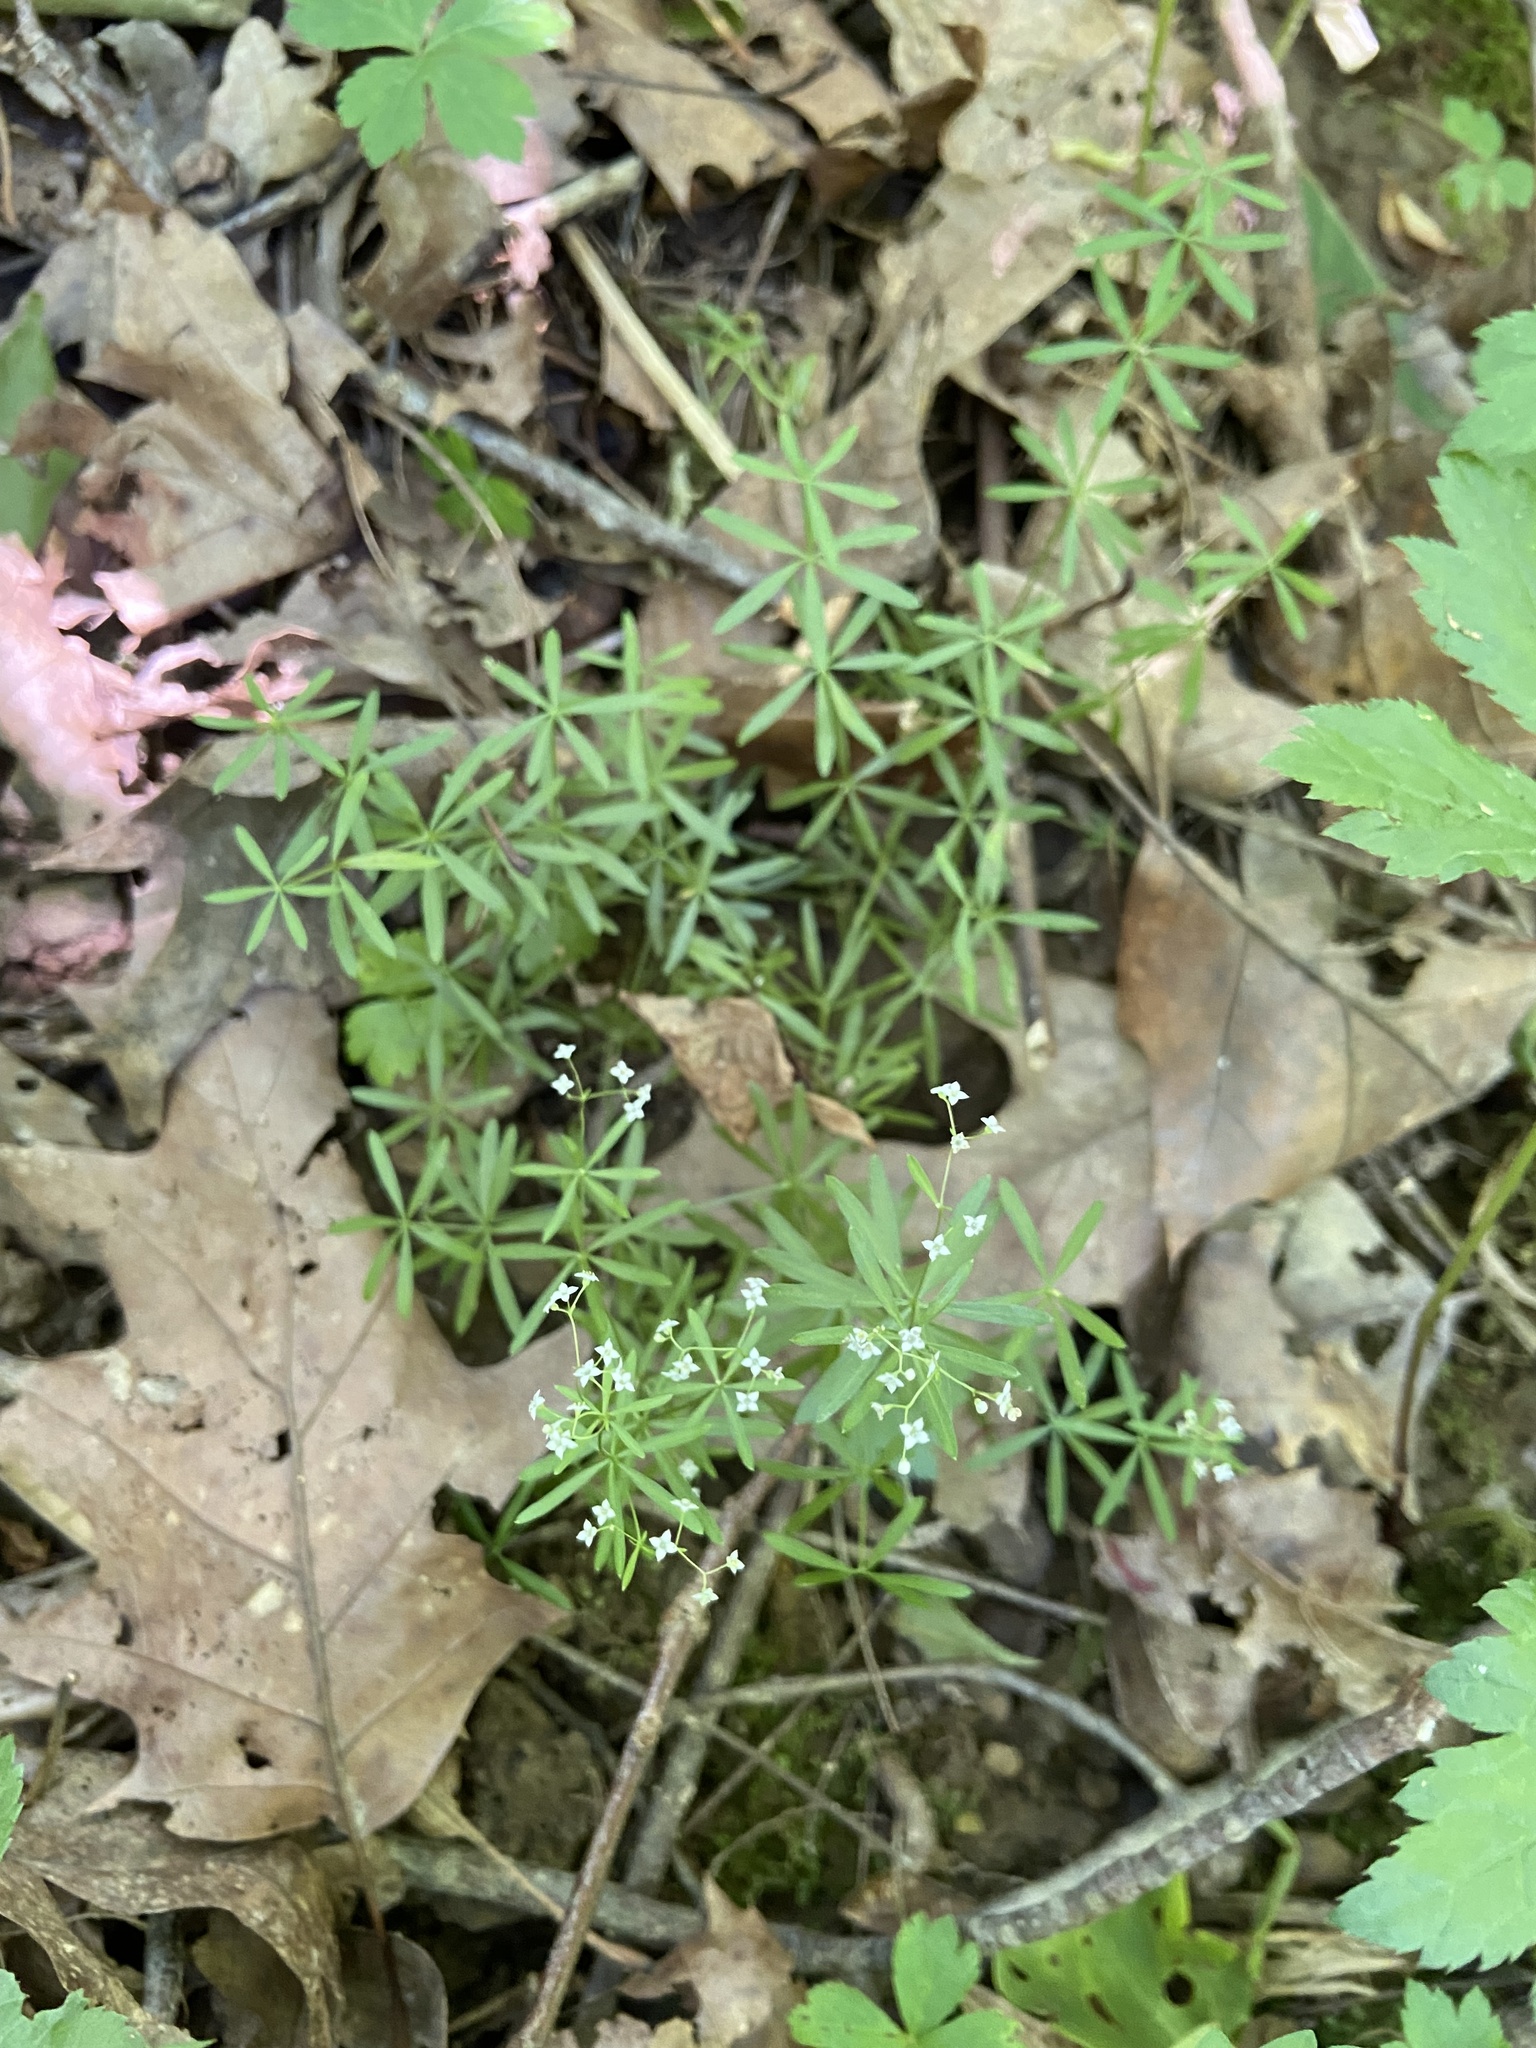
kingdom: Plantae
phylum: Tracheophyta
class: Magnoliopsida
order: Gentianales
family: Rubiaceae
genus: Galium
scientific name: Galium concinnum
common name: Shining bedstraw
